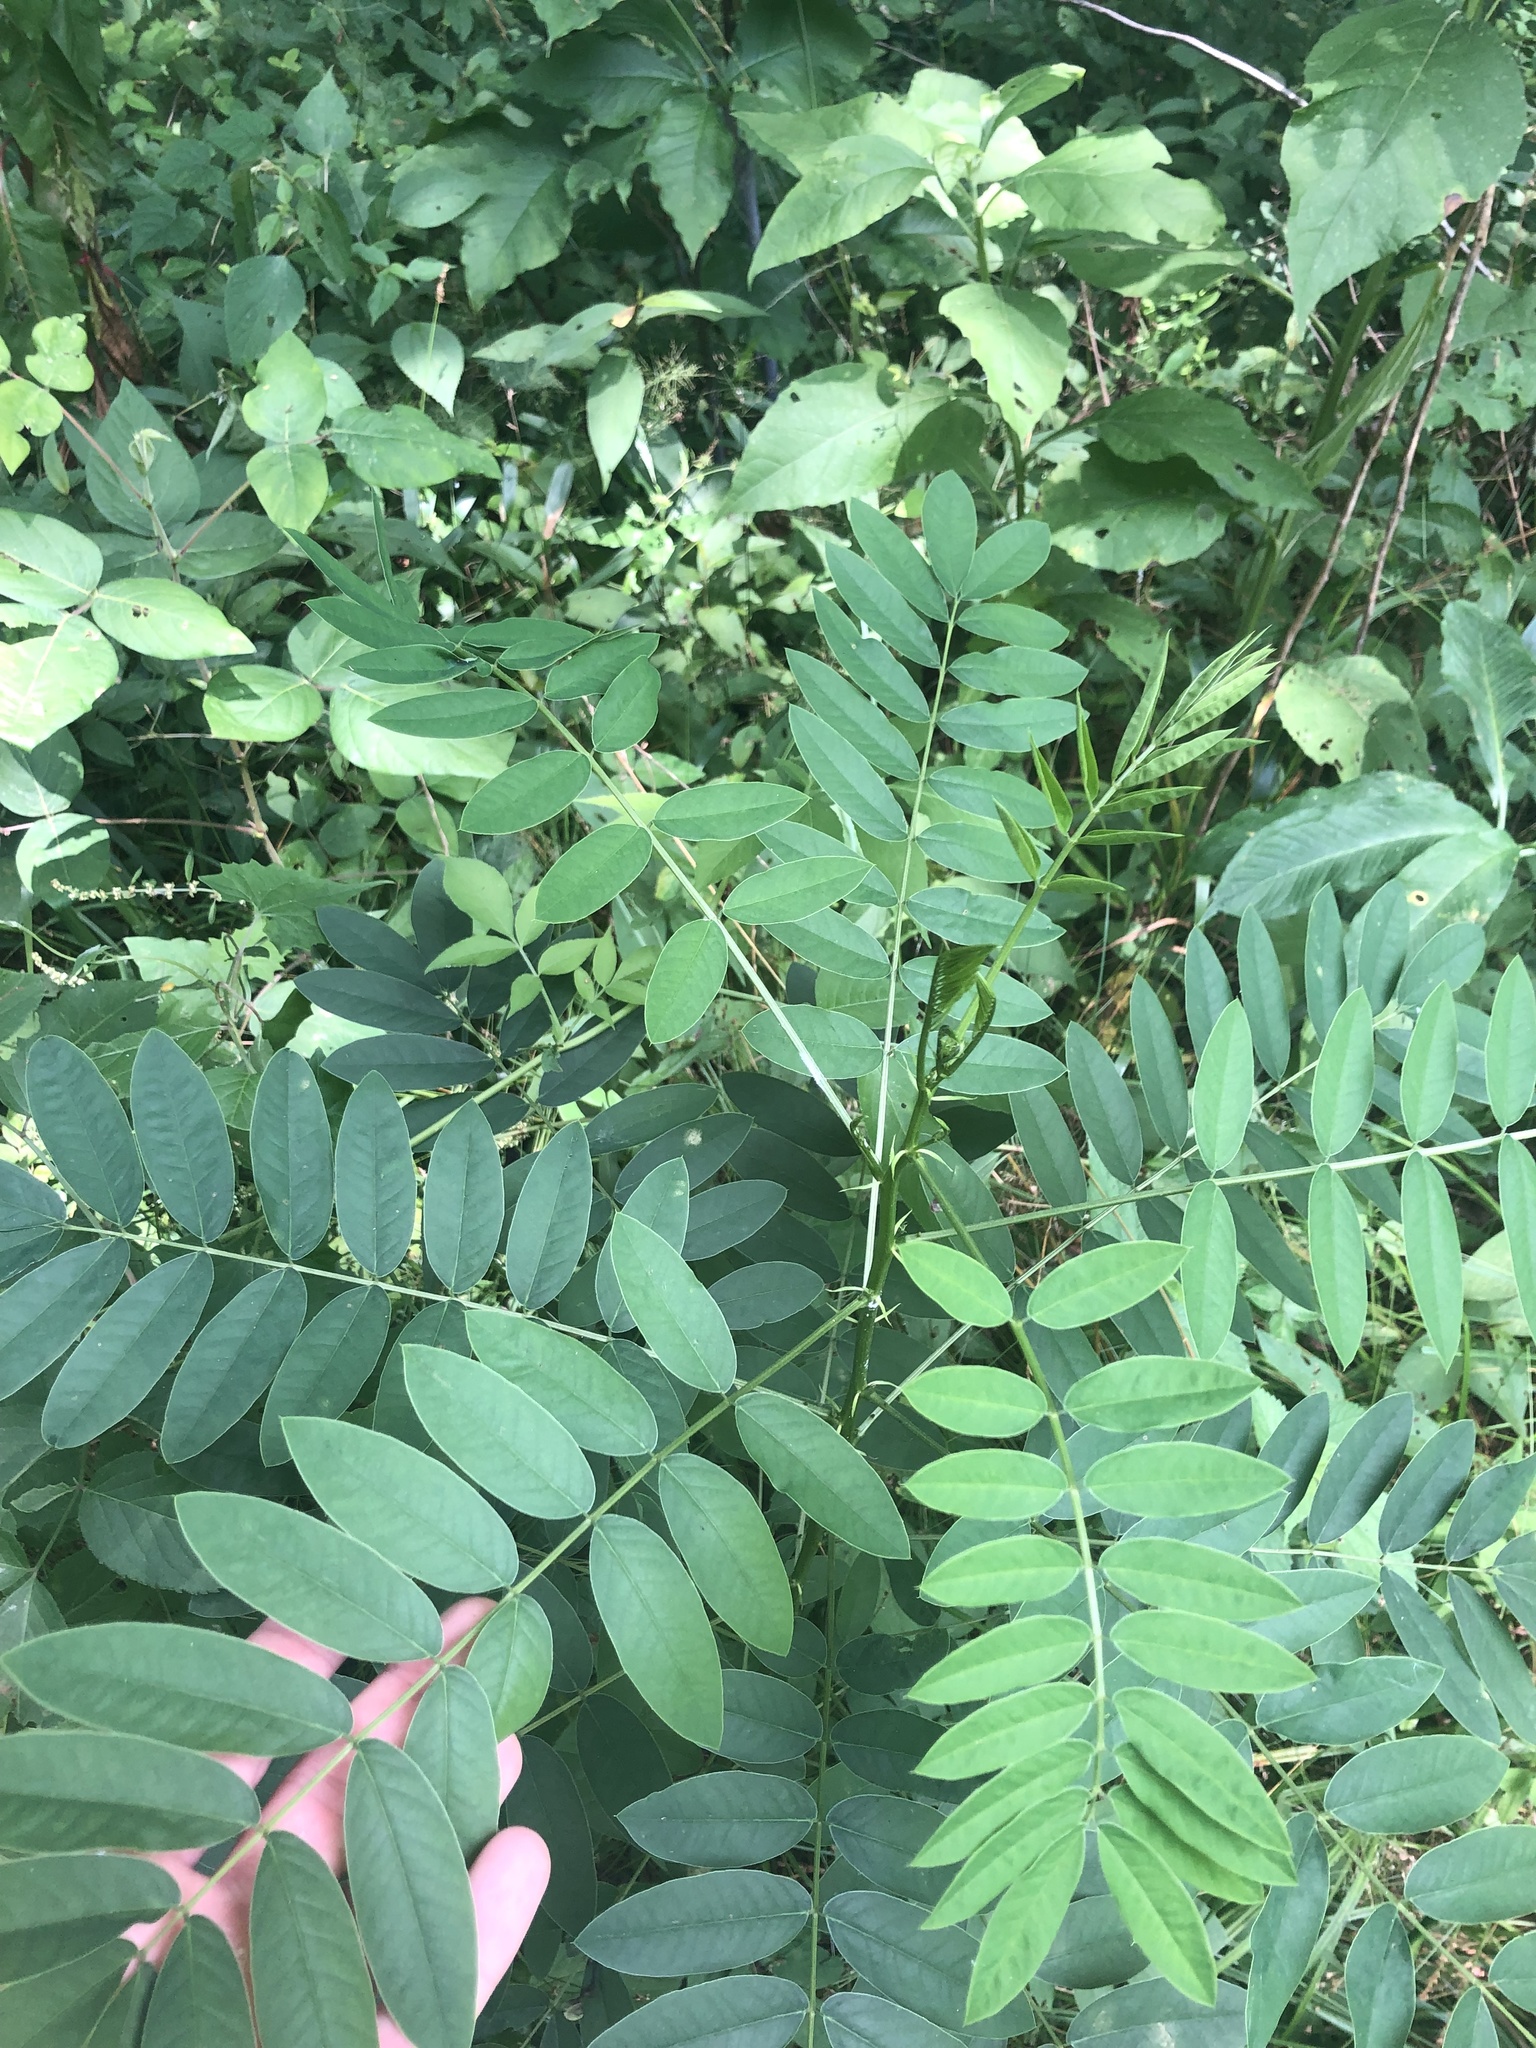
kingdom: Plantae
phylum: Tracheophyta
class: Magnoliopsida
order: Fabales
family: Fabaceae
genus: Senna
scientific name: Senna marilandica
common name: American senna
